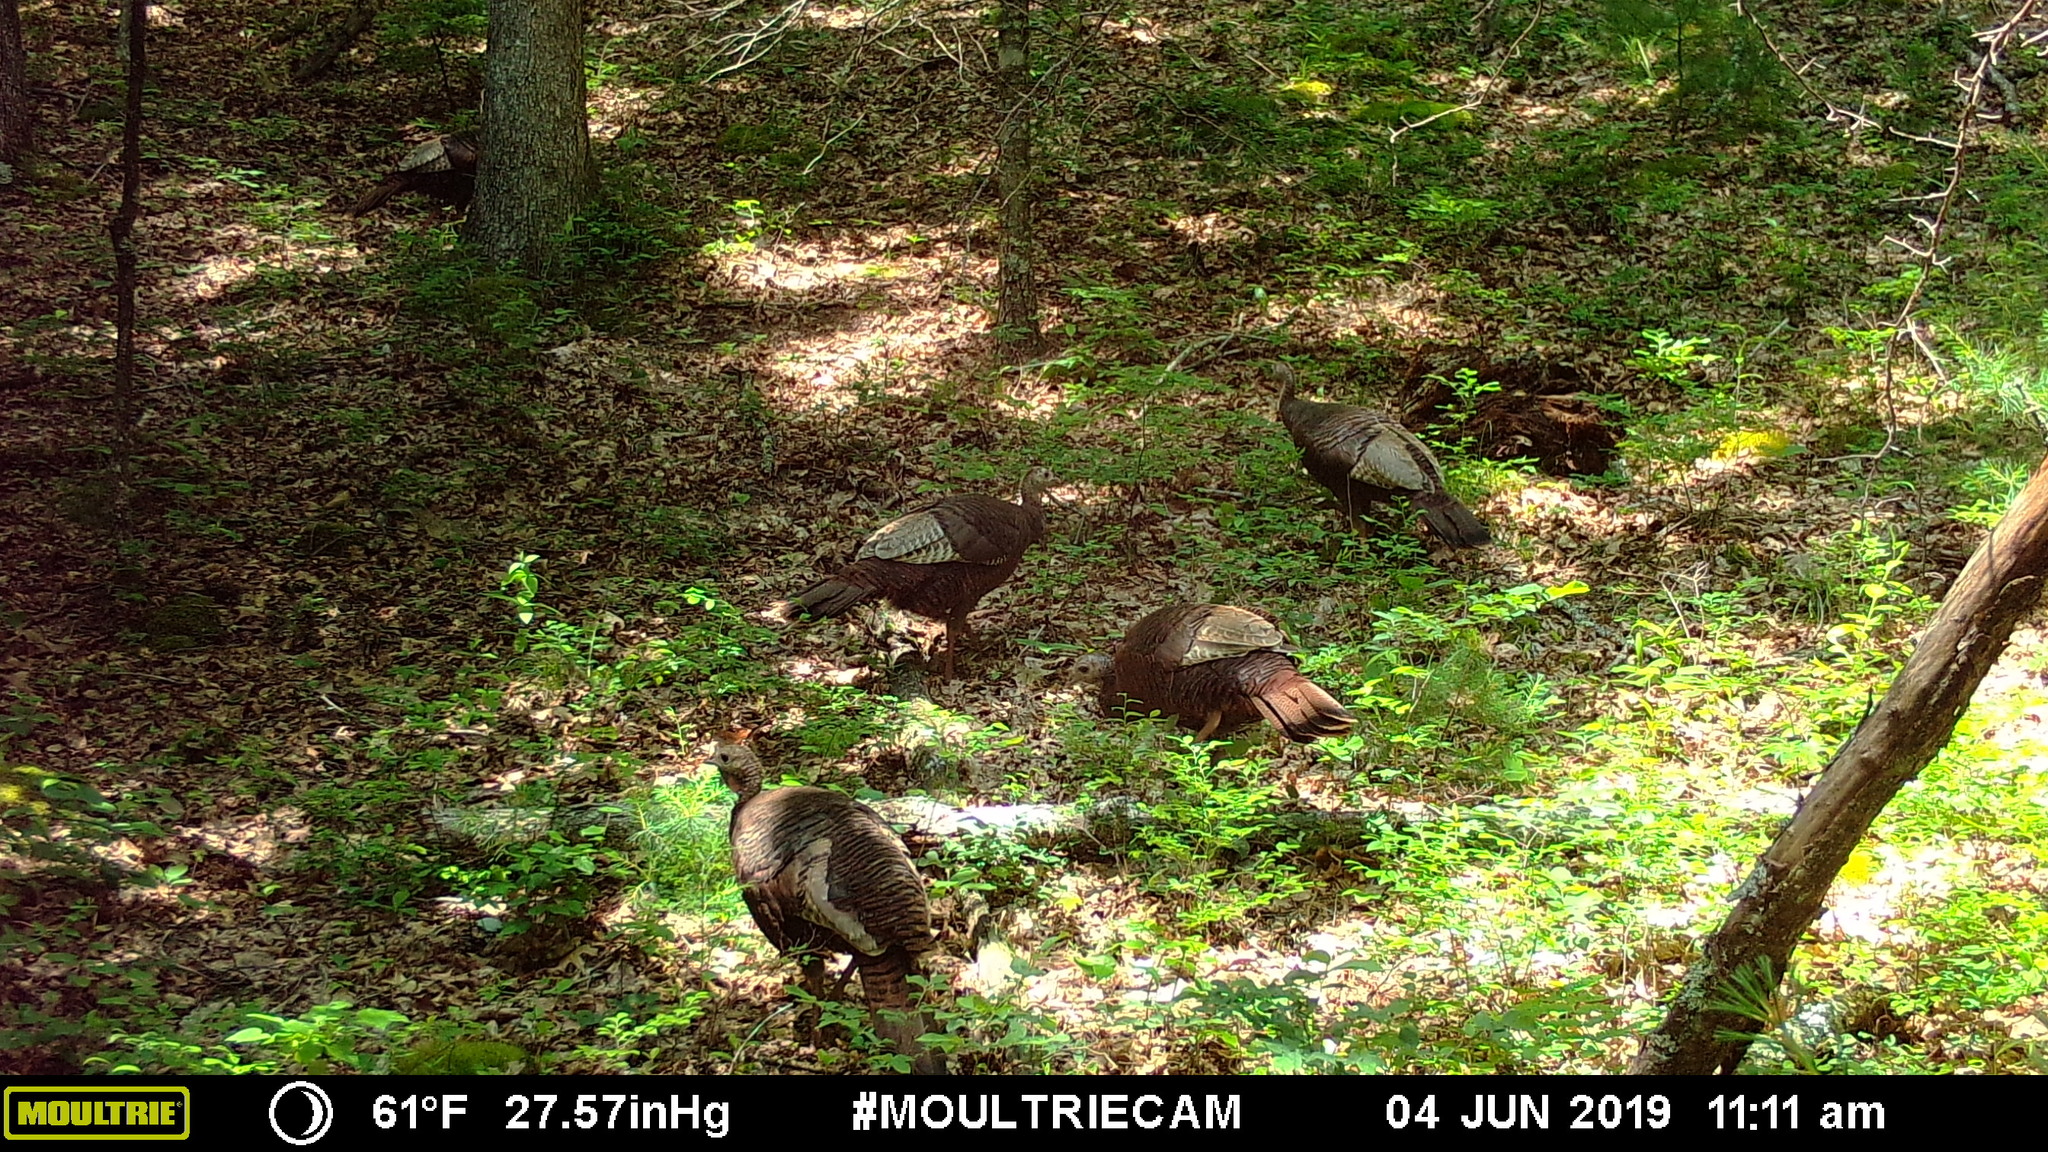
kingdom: Animalia
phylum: Chordata
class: Aves
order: Galliformes
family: Phasianidae
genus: Meleagris
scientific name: Meleagris gallopavo
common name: Wild turkey
